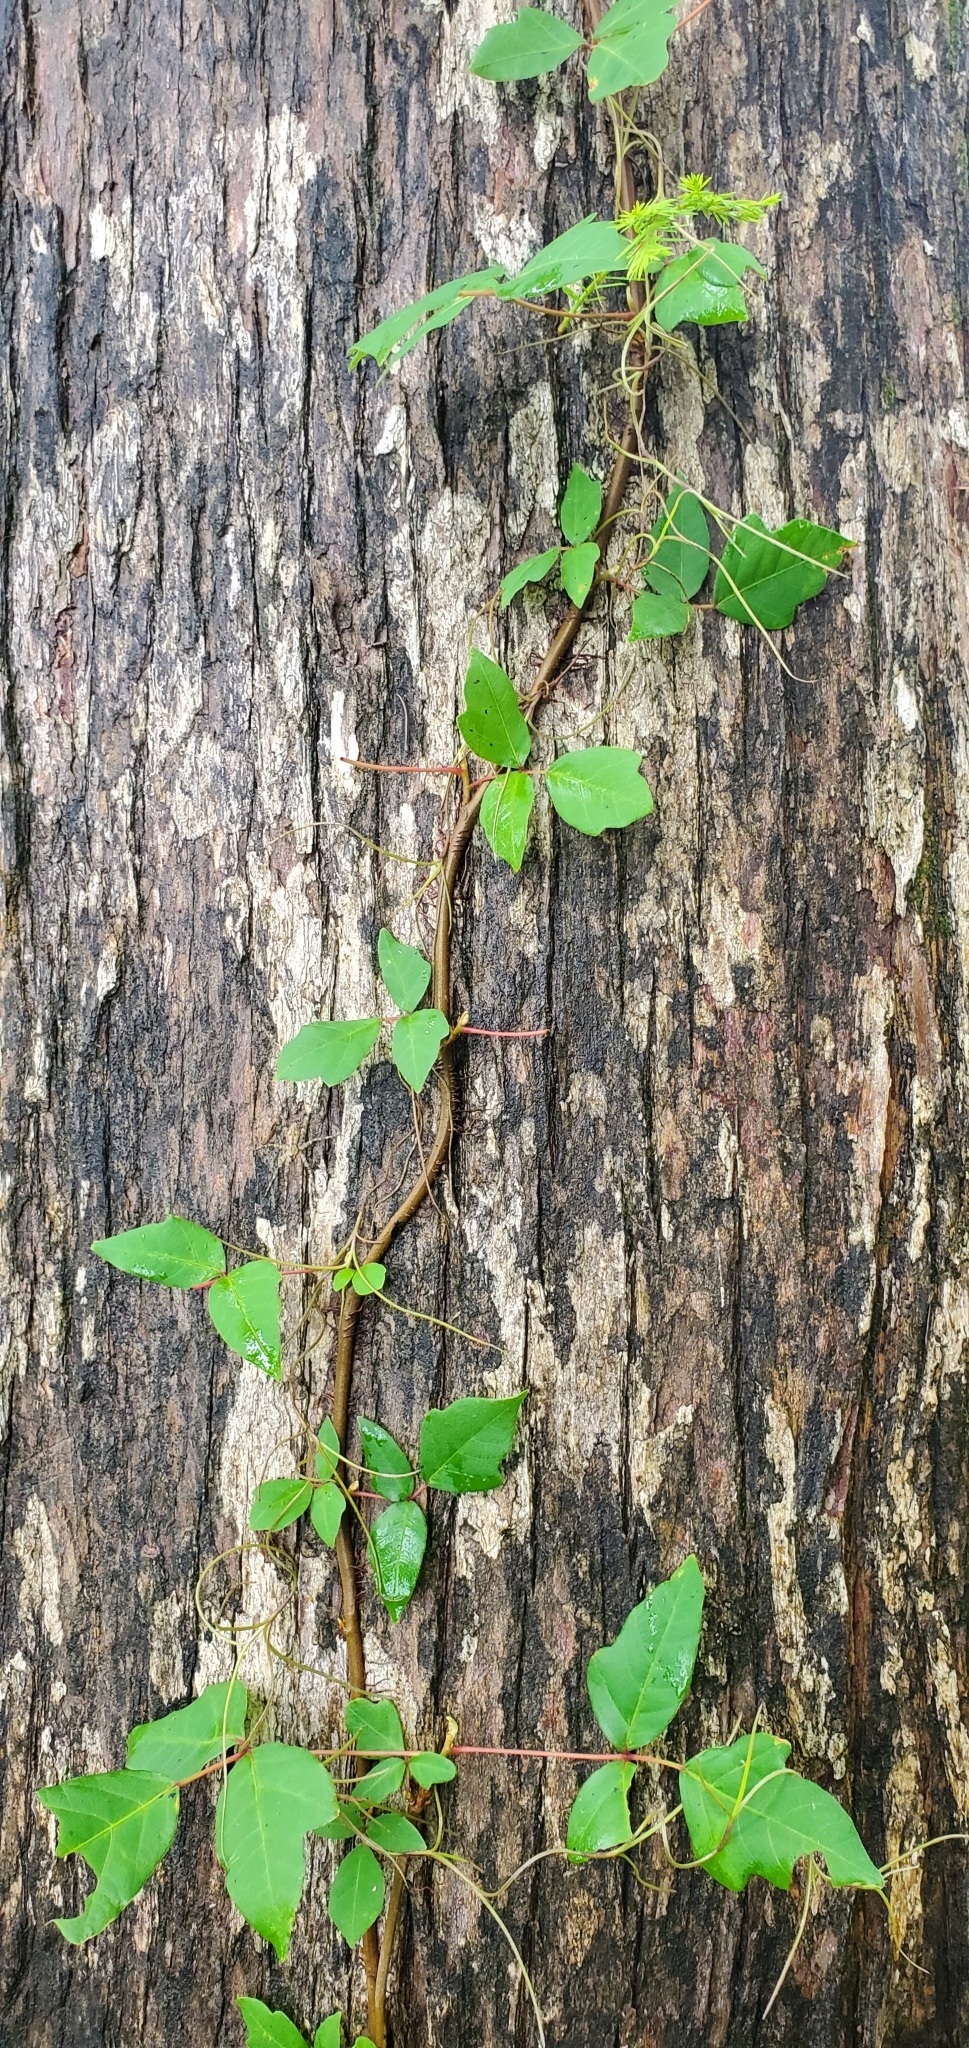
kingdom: Plantae
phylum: Tracheophyta
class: Magnoliopsida
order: Sapindales
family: Anacardiaceae
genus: Toxicodendron
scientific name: Toxicodendron radicans
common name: Poison ivy
